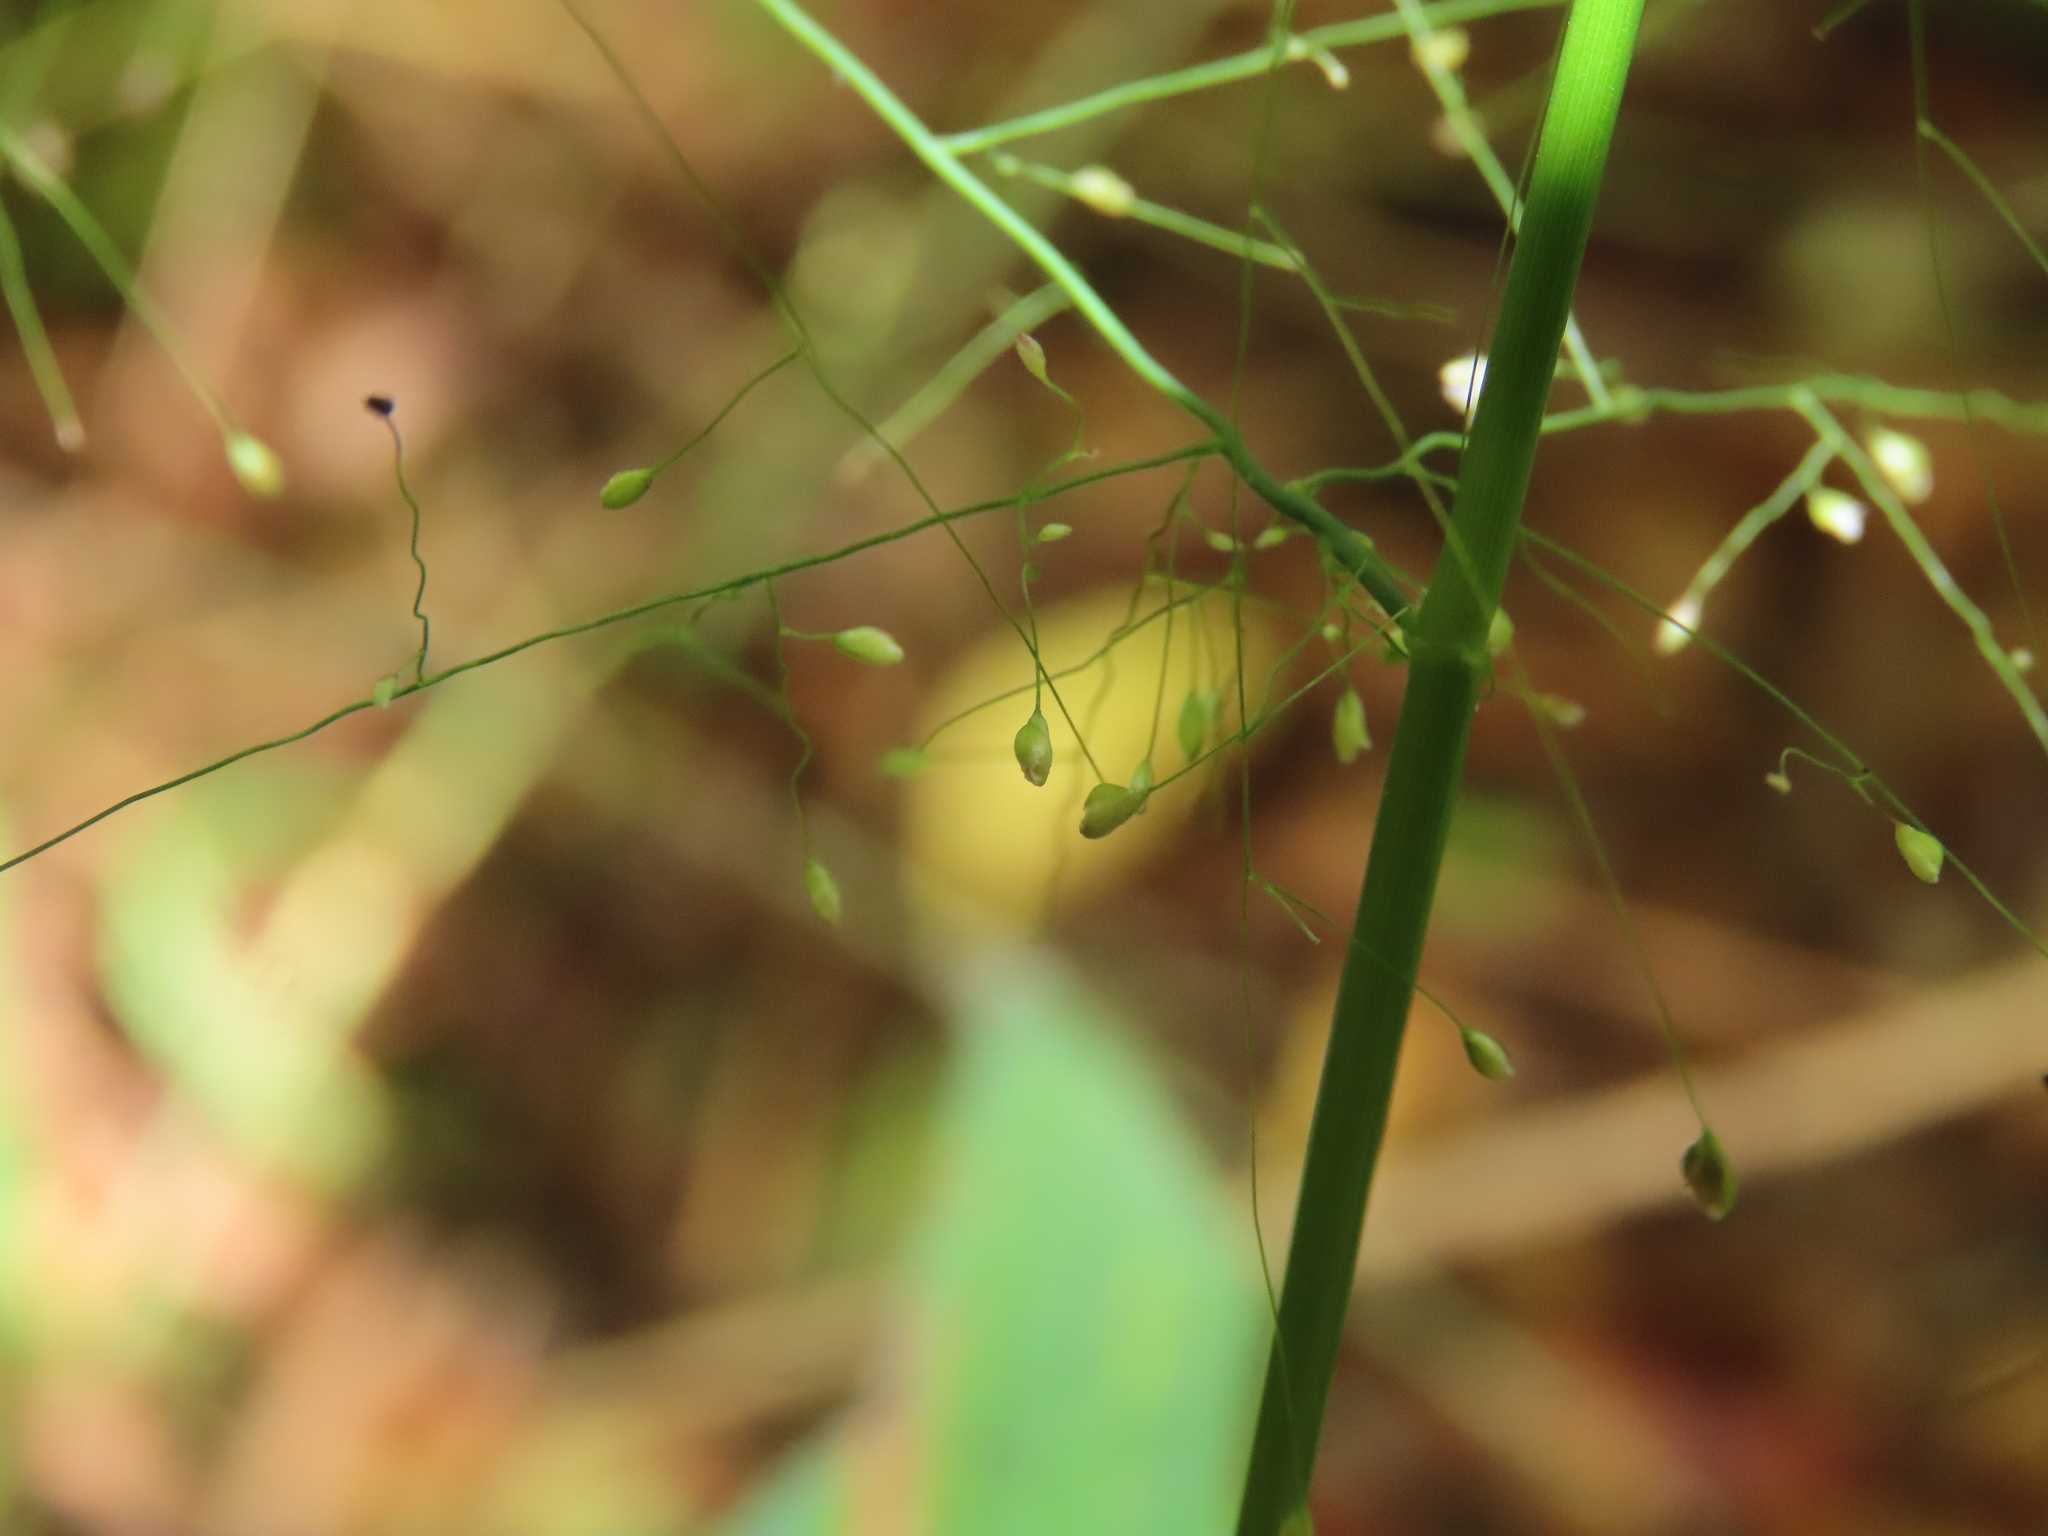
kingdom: Plantae
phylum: Tracheophyta
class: Liliopsida
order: Poales
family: Poaceae
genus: Cyrtococcum
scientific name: Cyrtococcum patens
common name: Broad-leaved bowgrass
